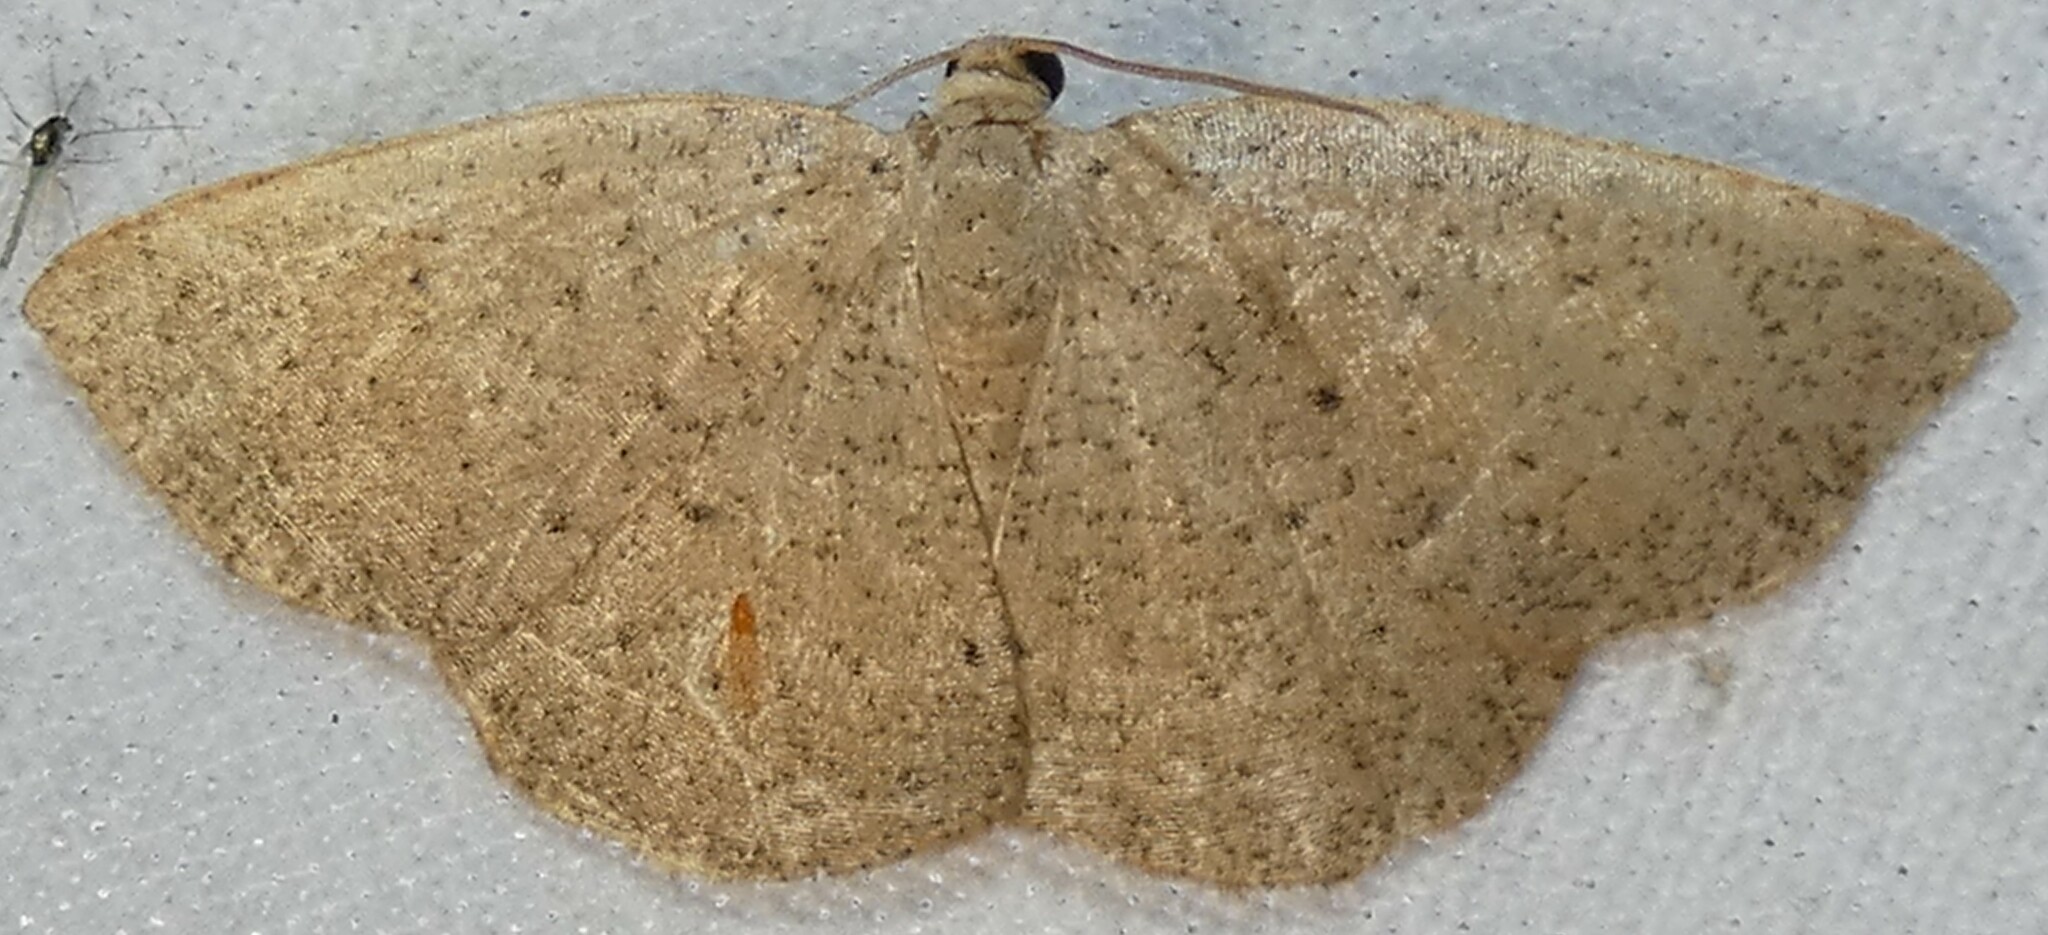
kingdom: Animalia
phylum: Arthropoda
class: Insecta
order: Lepidoptera
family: Geometridae
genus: Episemasia
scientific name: Episemasia solitaria
